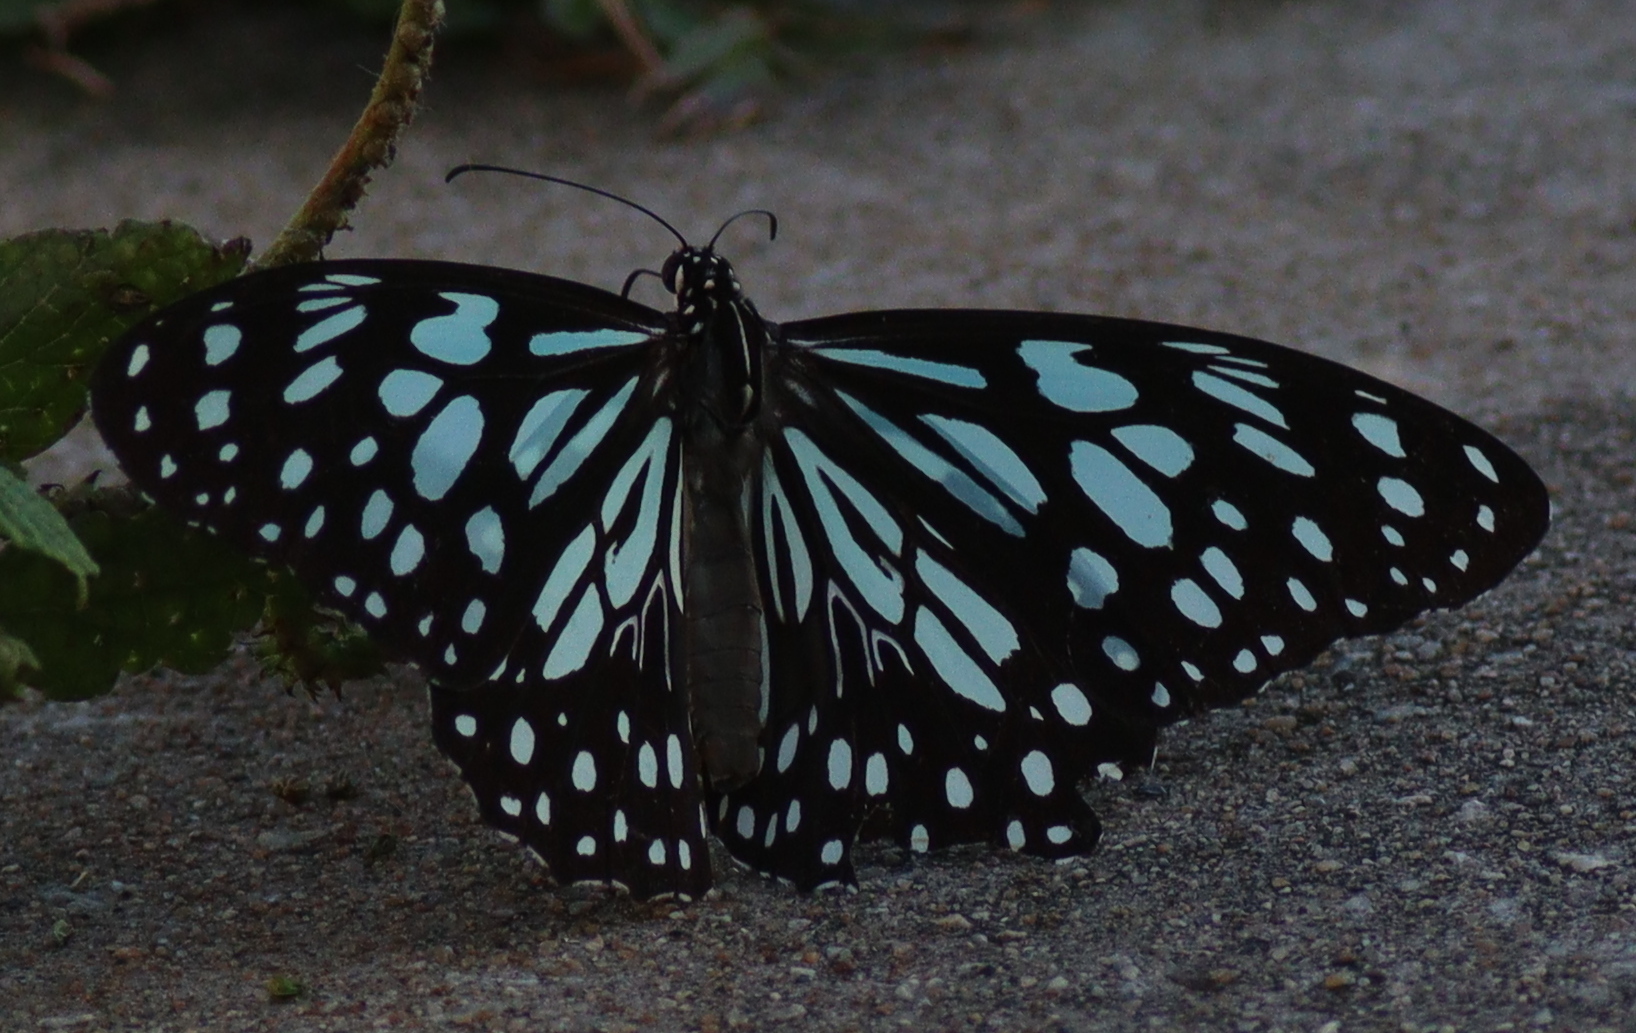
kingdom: Animalia
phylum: Arthropoda
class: Insecta
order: Lepidoptera
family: Nymphalidae
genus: Tirumala
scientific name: Tirumala limniace
